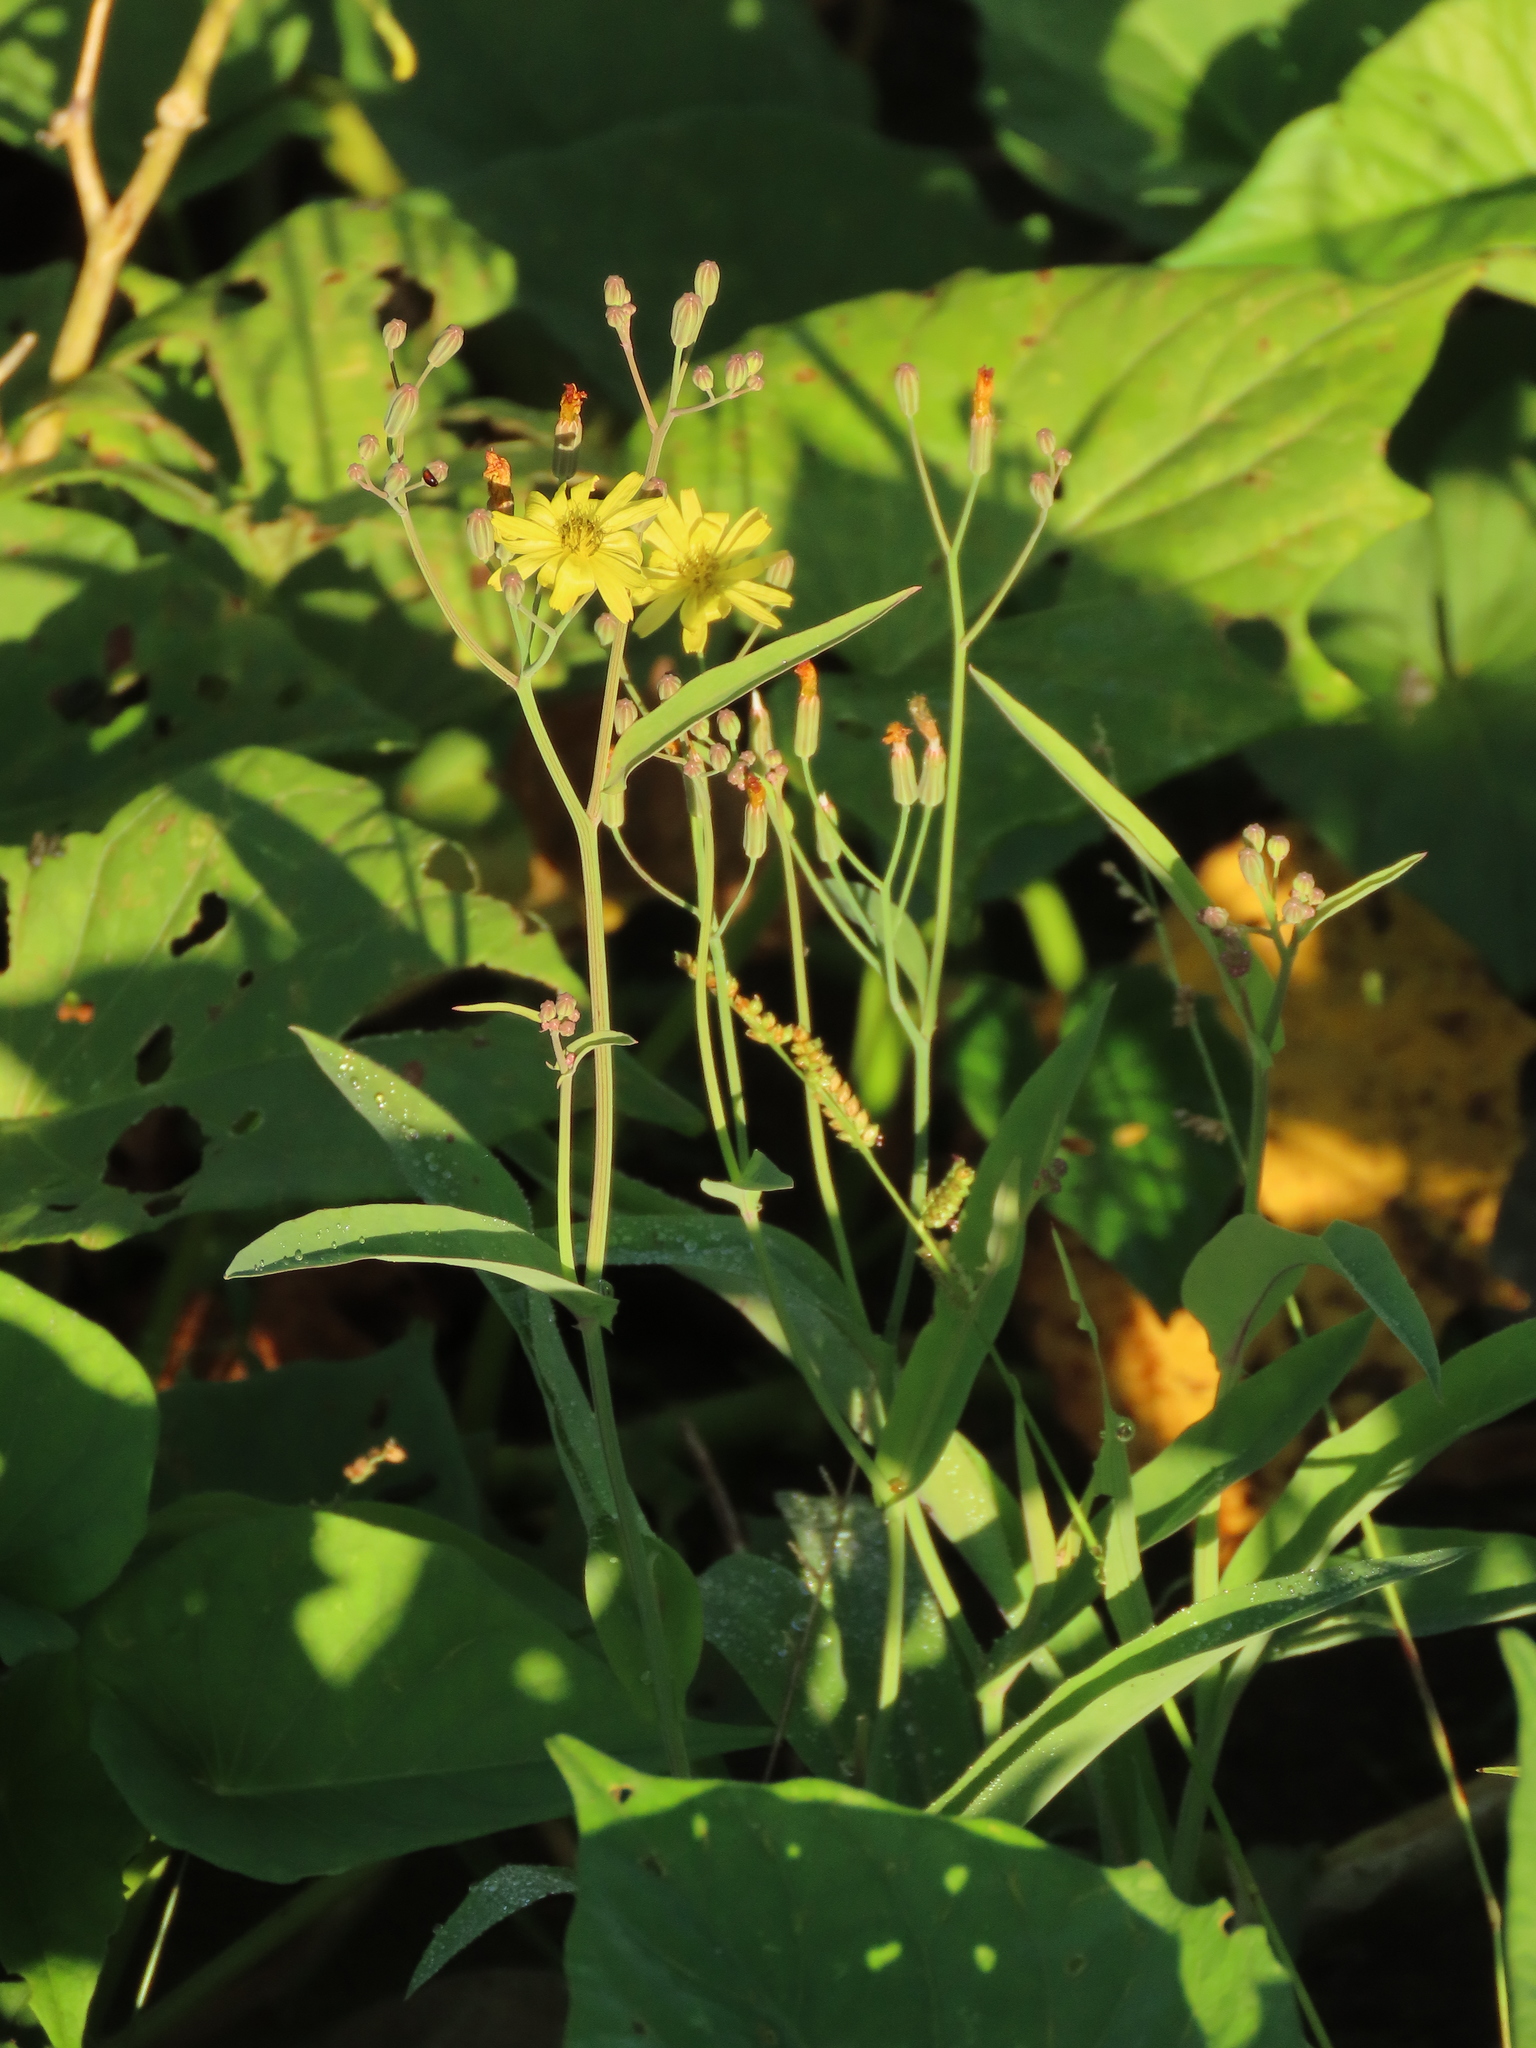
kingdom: Plantae
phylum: Tracheophyta
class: Magnoliopsida
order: Asterales
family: Asteraceae
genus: Ixeris
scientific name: Ixeris chinensis
